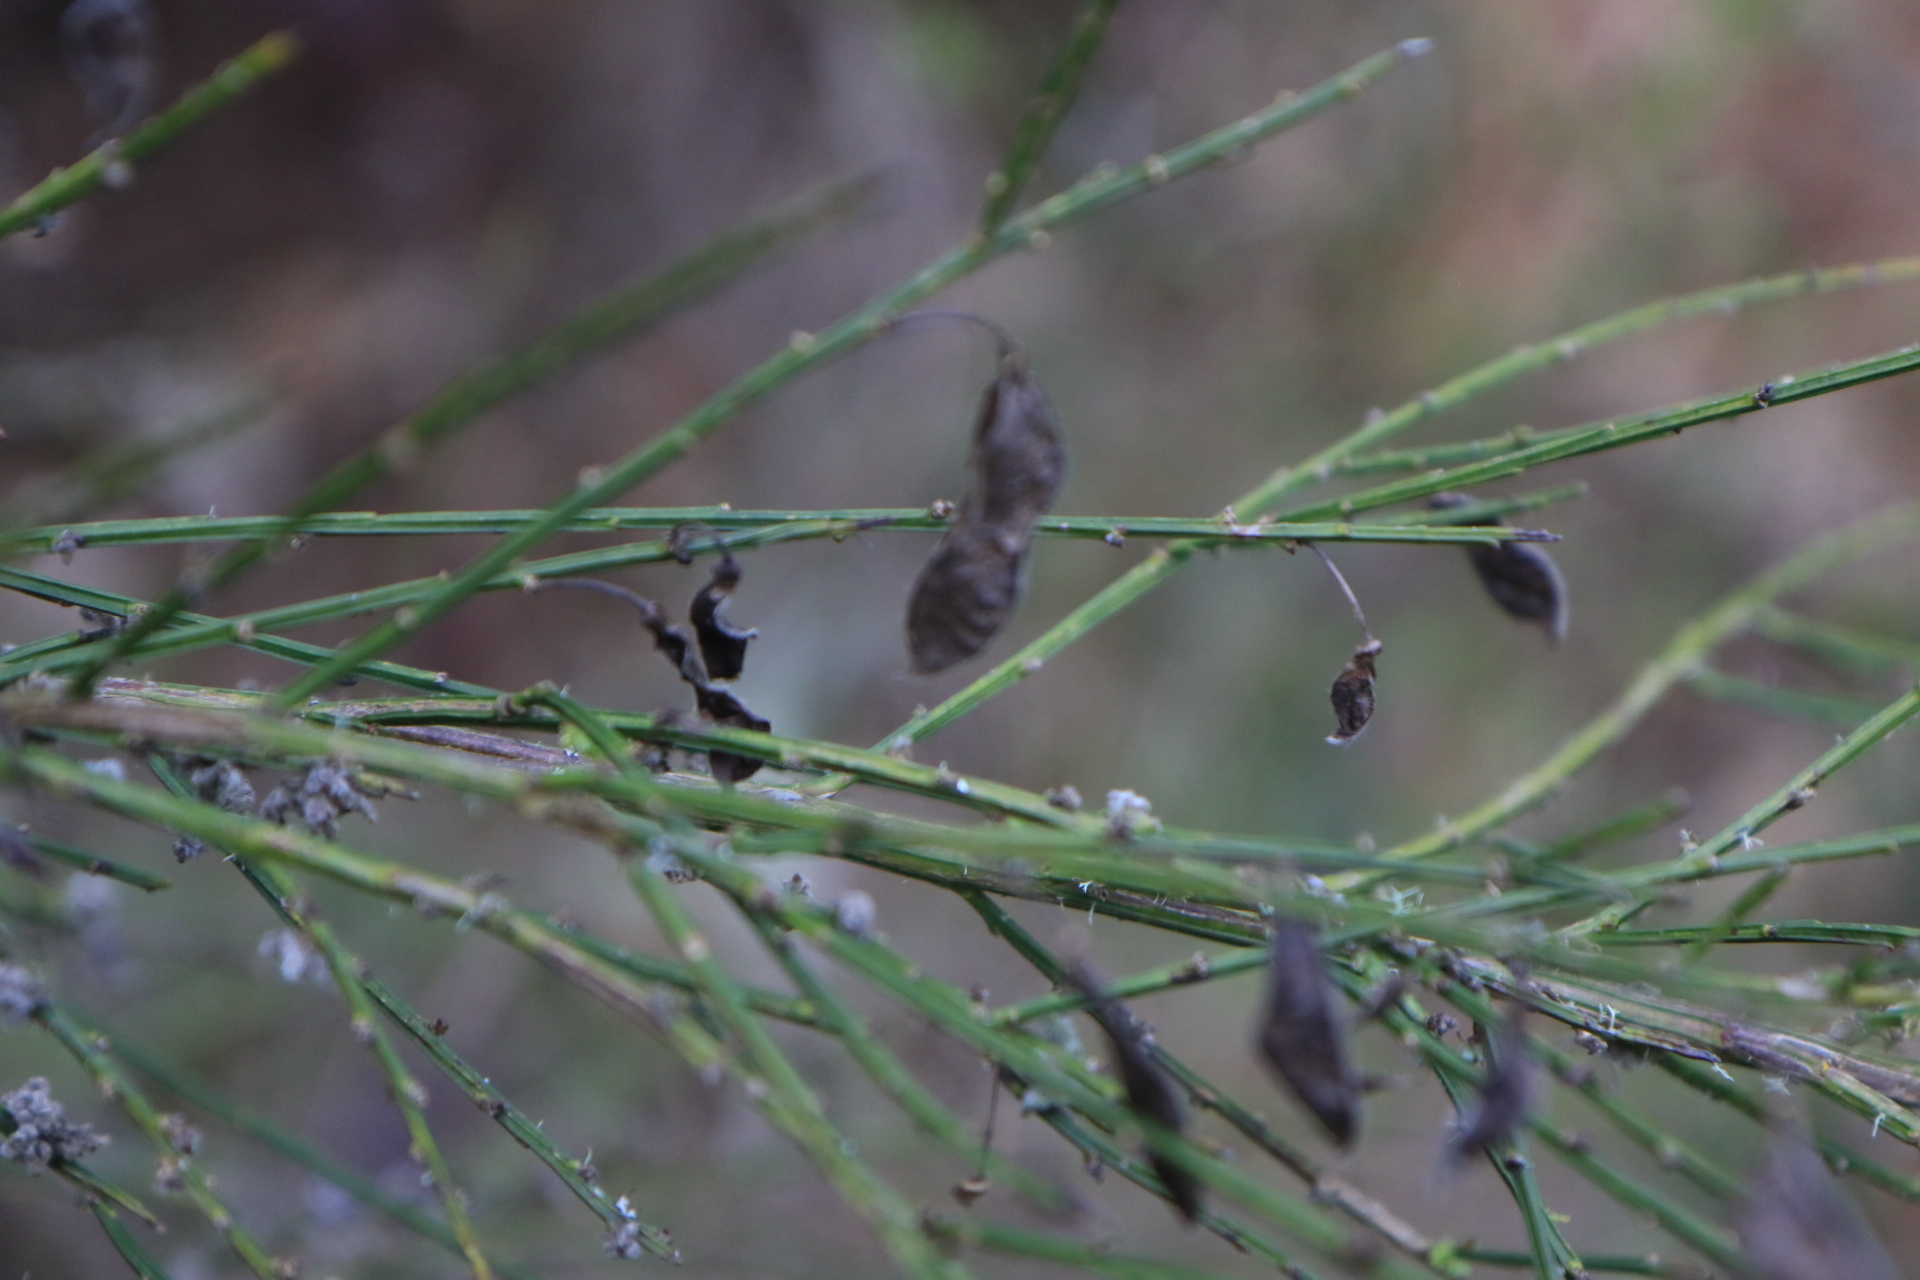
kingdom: Plantae
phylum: Tracheophyta
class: Magnoliopsida
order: Fabales
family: Fabaceae
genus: Cytisus
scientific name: Cytisus scoparius
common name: Scotch broom
